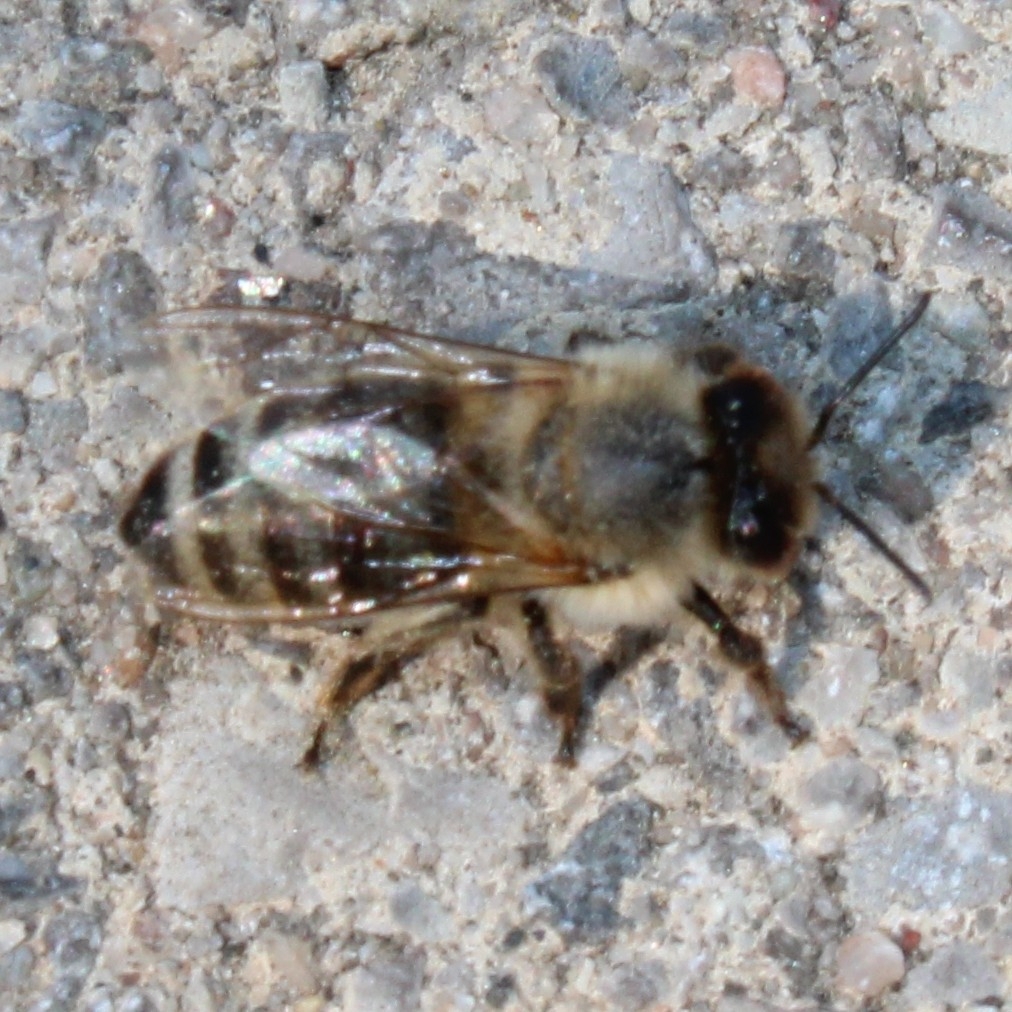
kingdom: Animalia
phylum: Arthropoda
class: Insecta
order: Hymenoptera
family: Apidae
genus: Apis
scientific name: Apis mellifera
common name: Honey bee
